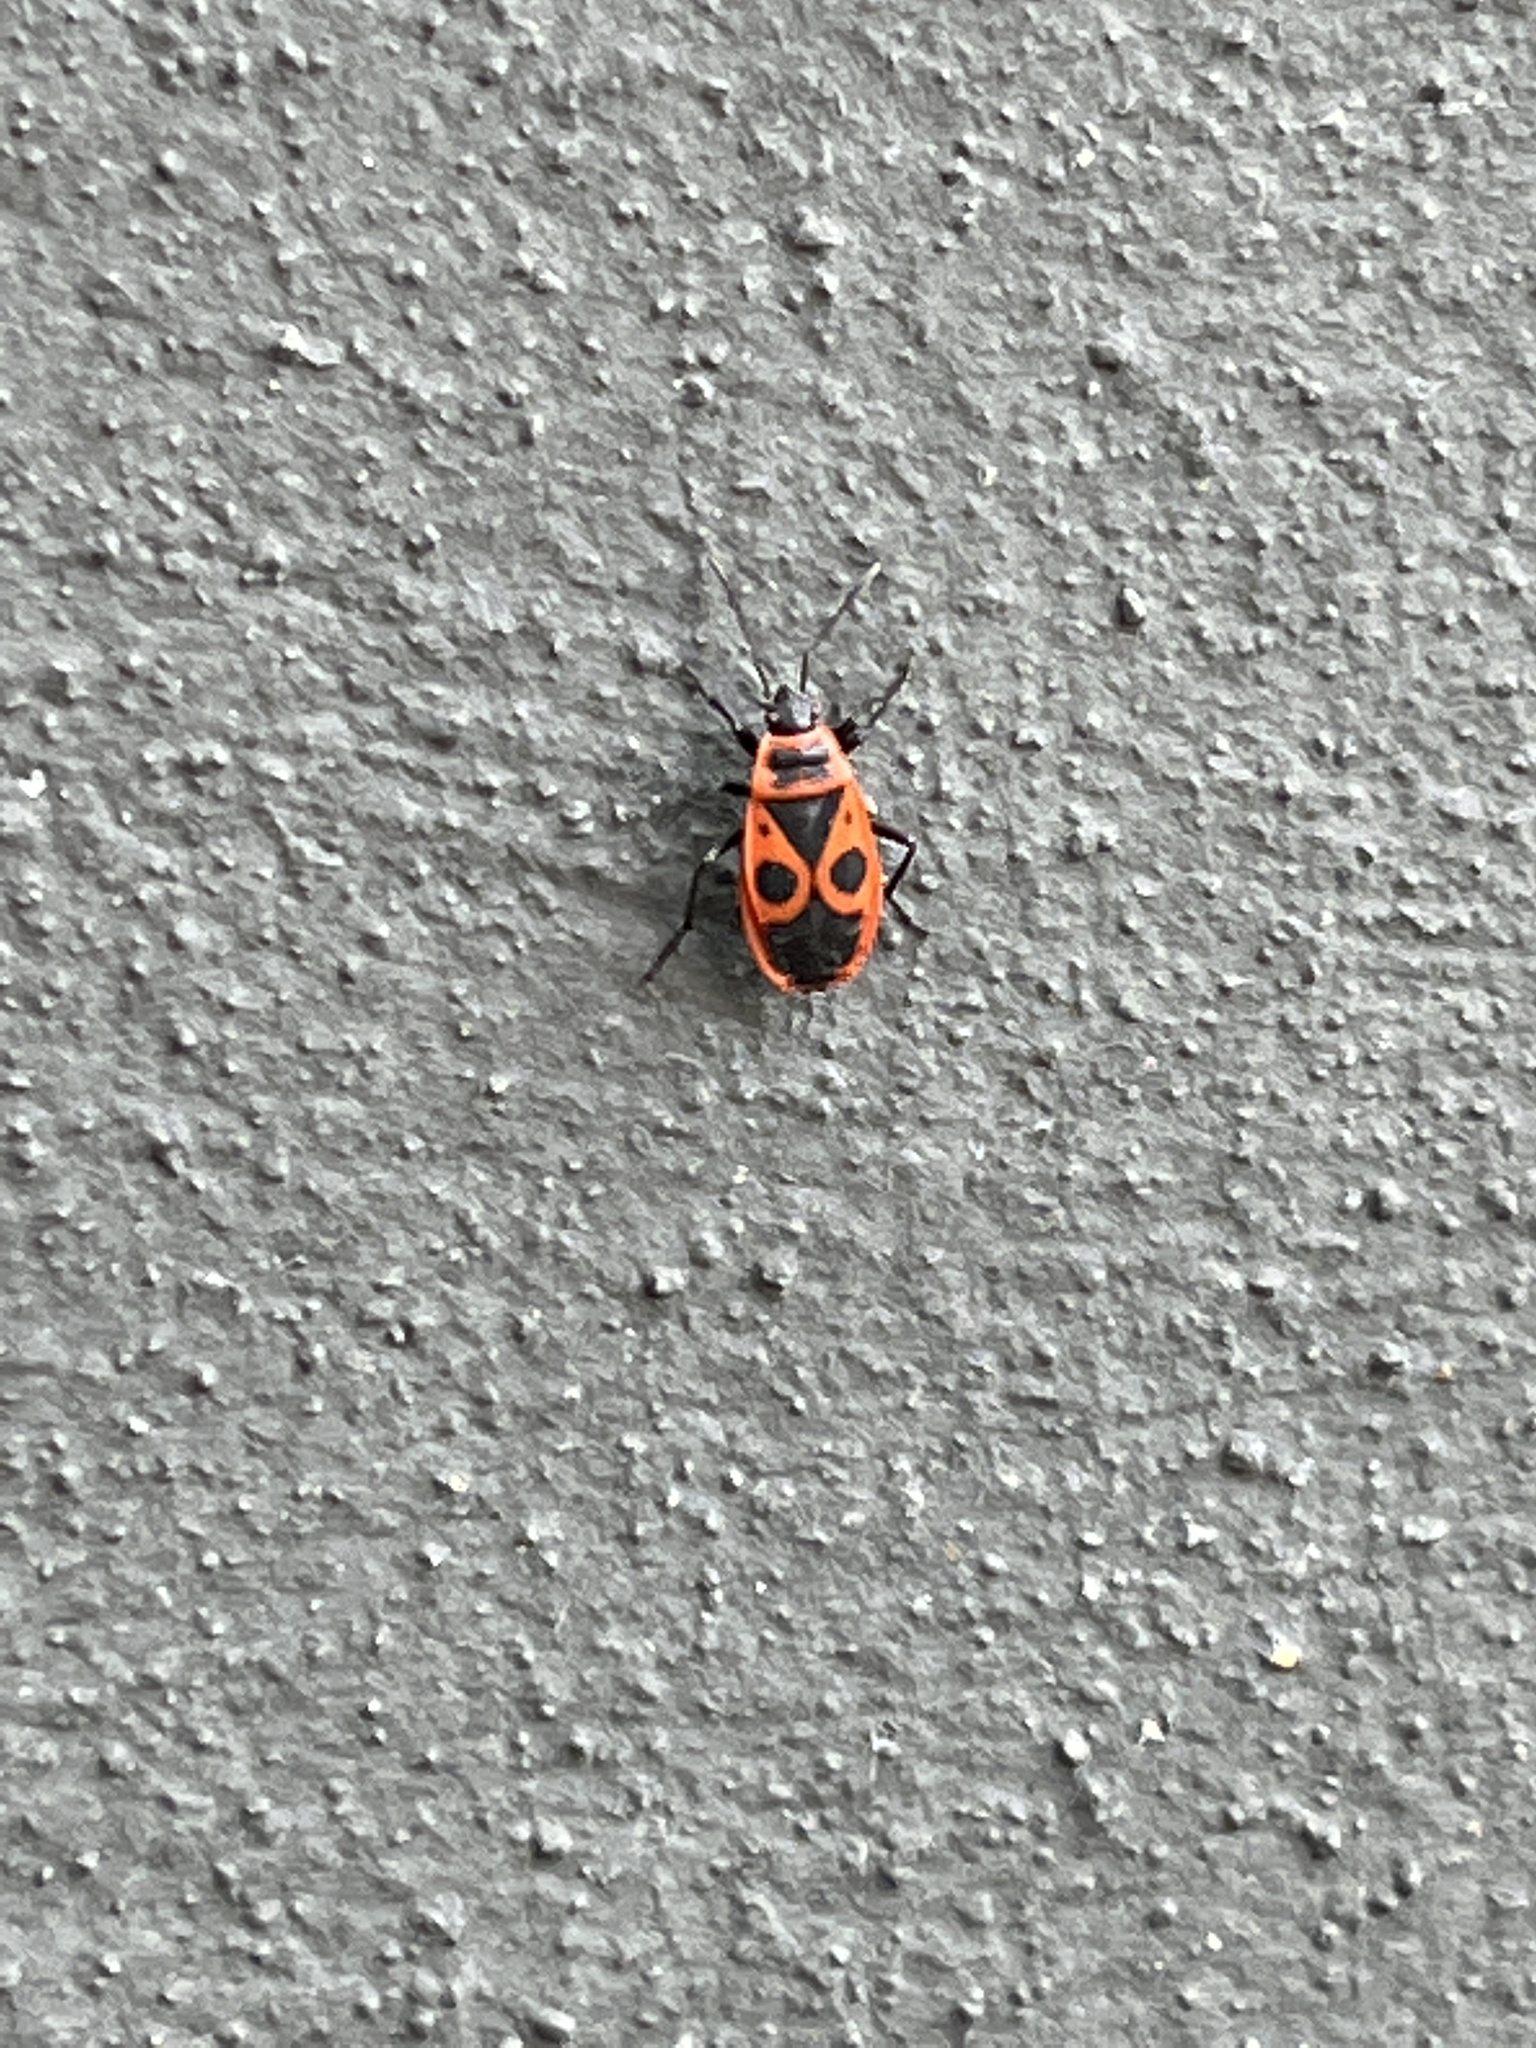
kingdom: Animalia
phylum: Arthropoda
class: Insecta
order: Hemiptera
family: Pyrrhocoridae
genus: Pyrrhocoris
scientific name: Pyrrhocoris apterus
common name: Firebug
